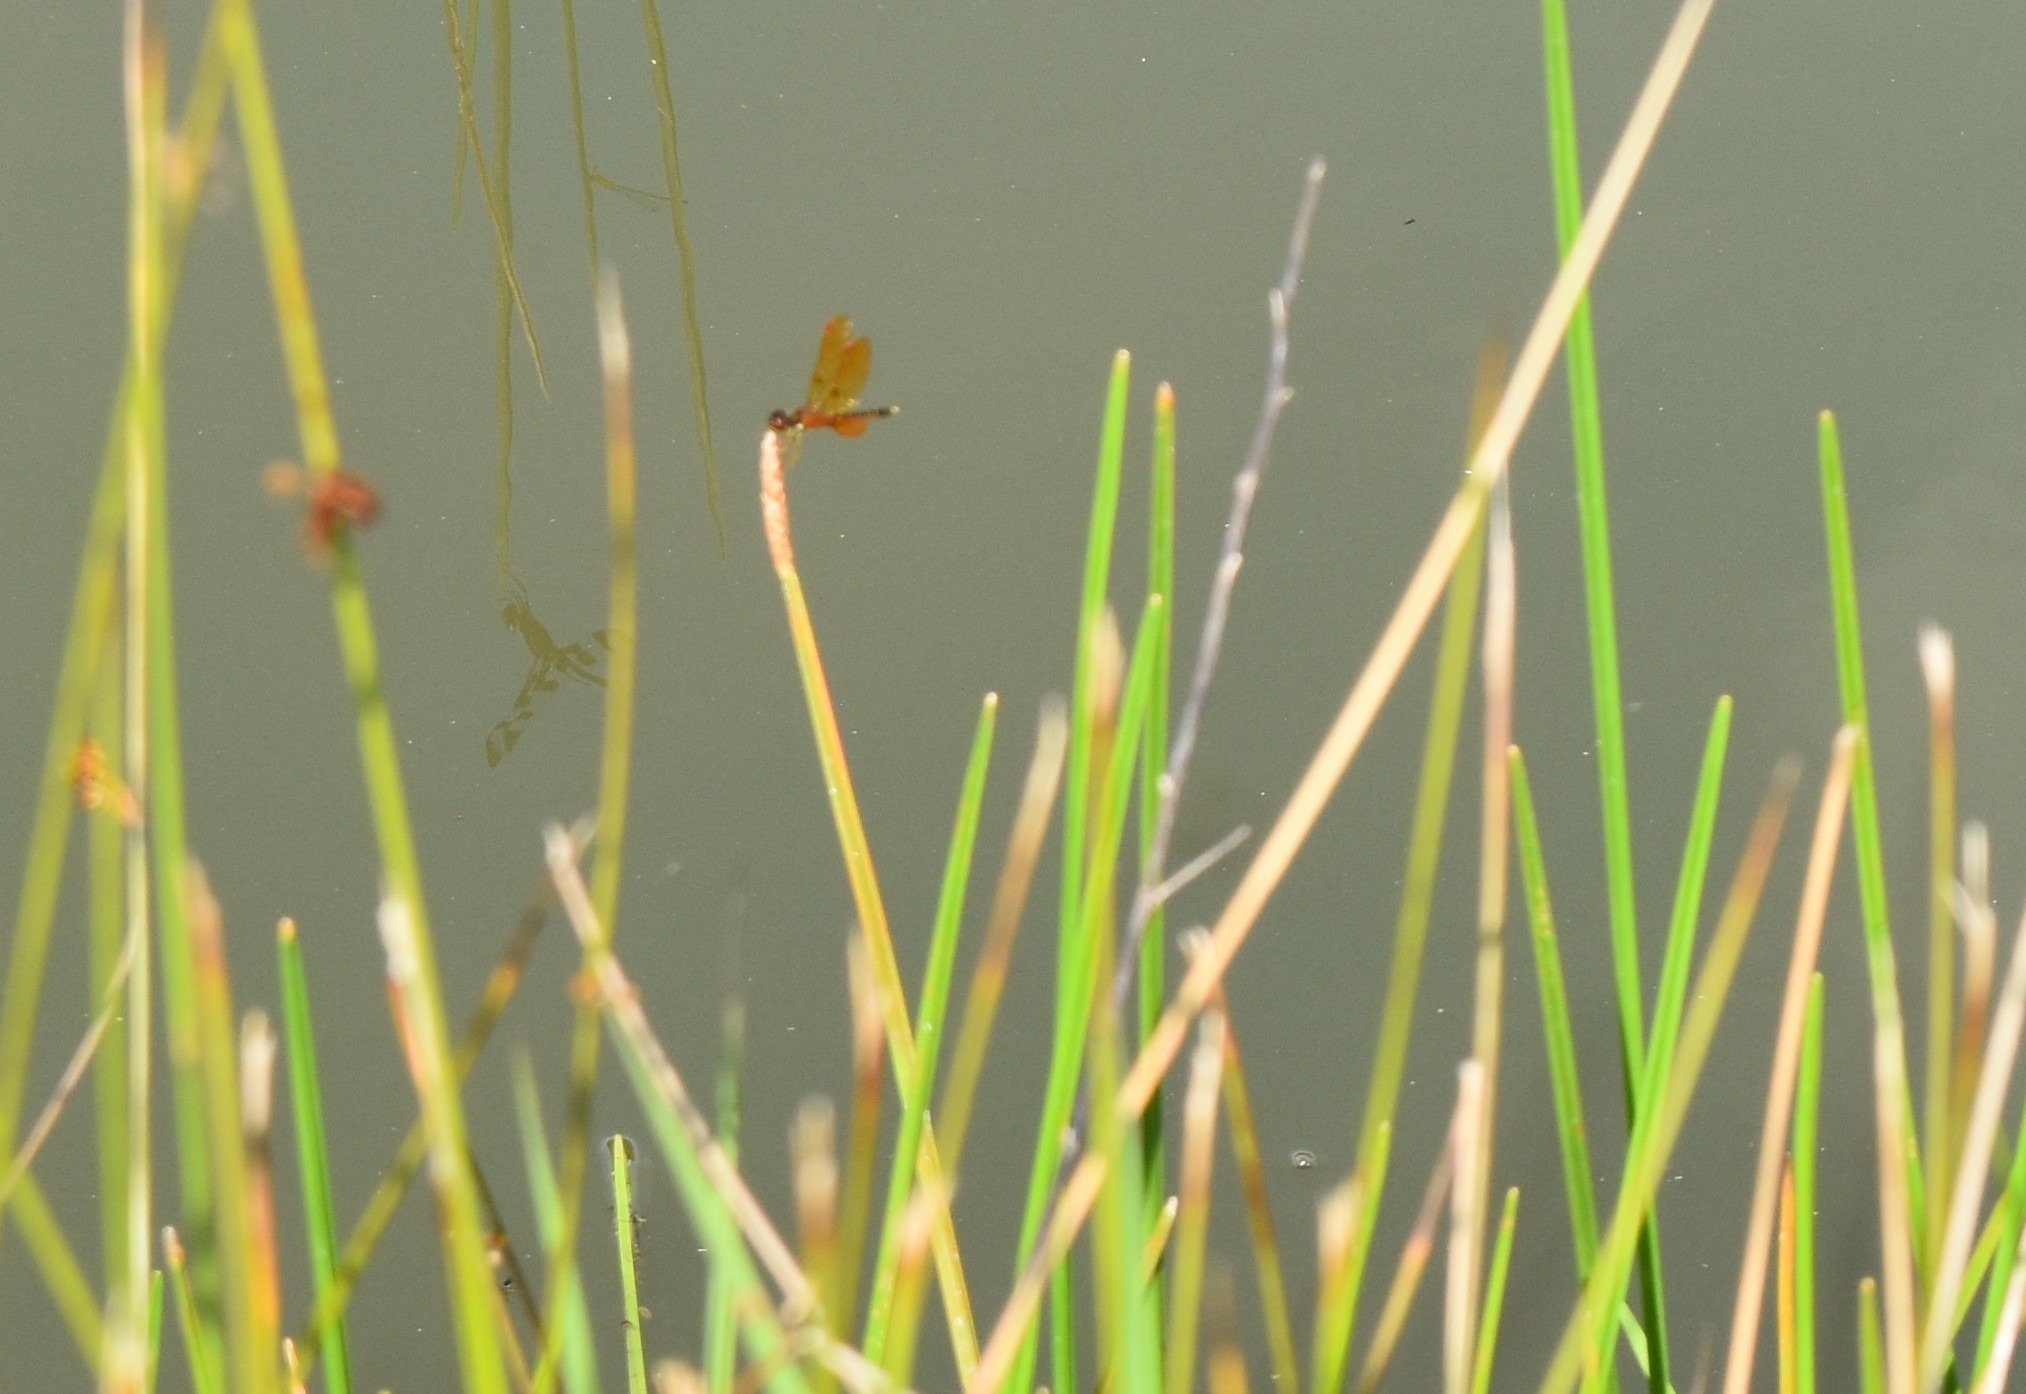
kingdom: Animalia
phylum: Arthropoda
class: Insecta
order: Odonata
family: Libellulidae
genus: Perithemis
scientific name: Perithemis tenera
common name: Eastern amberwing
